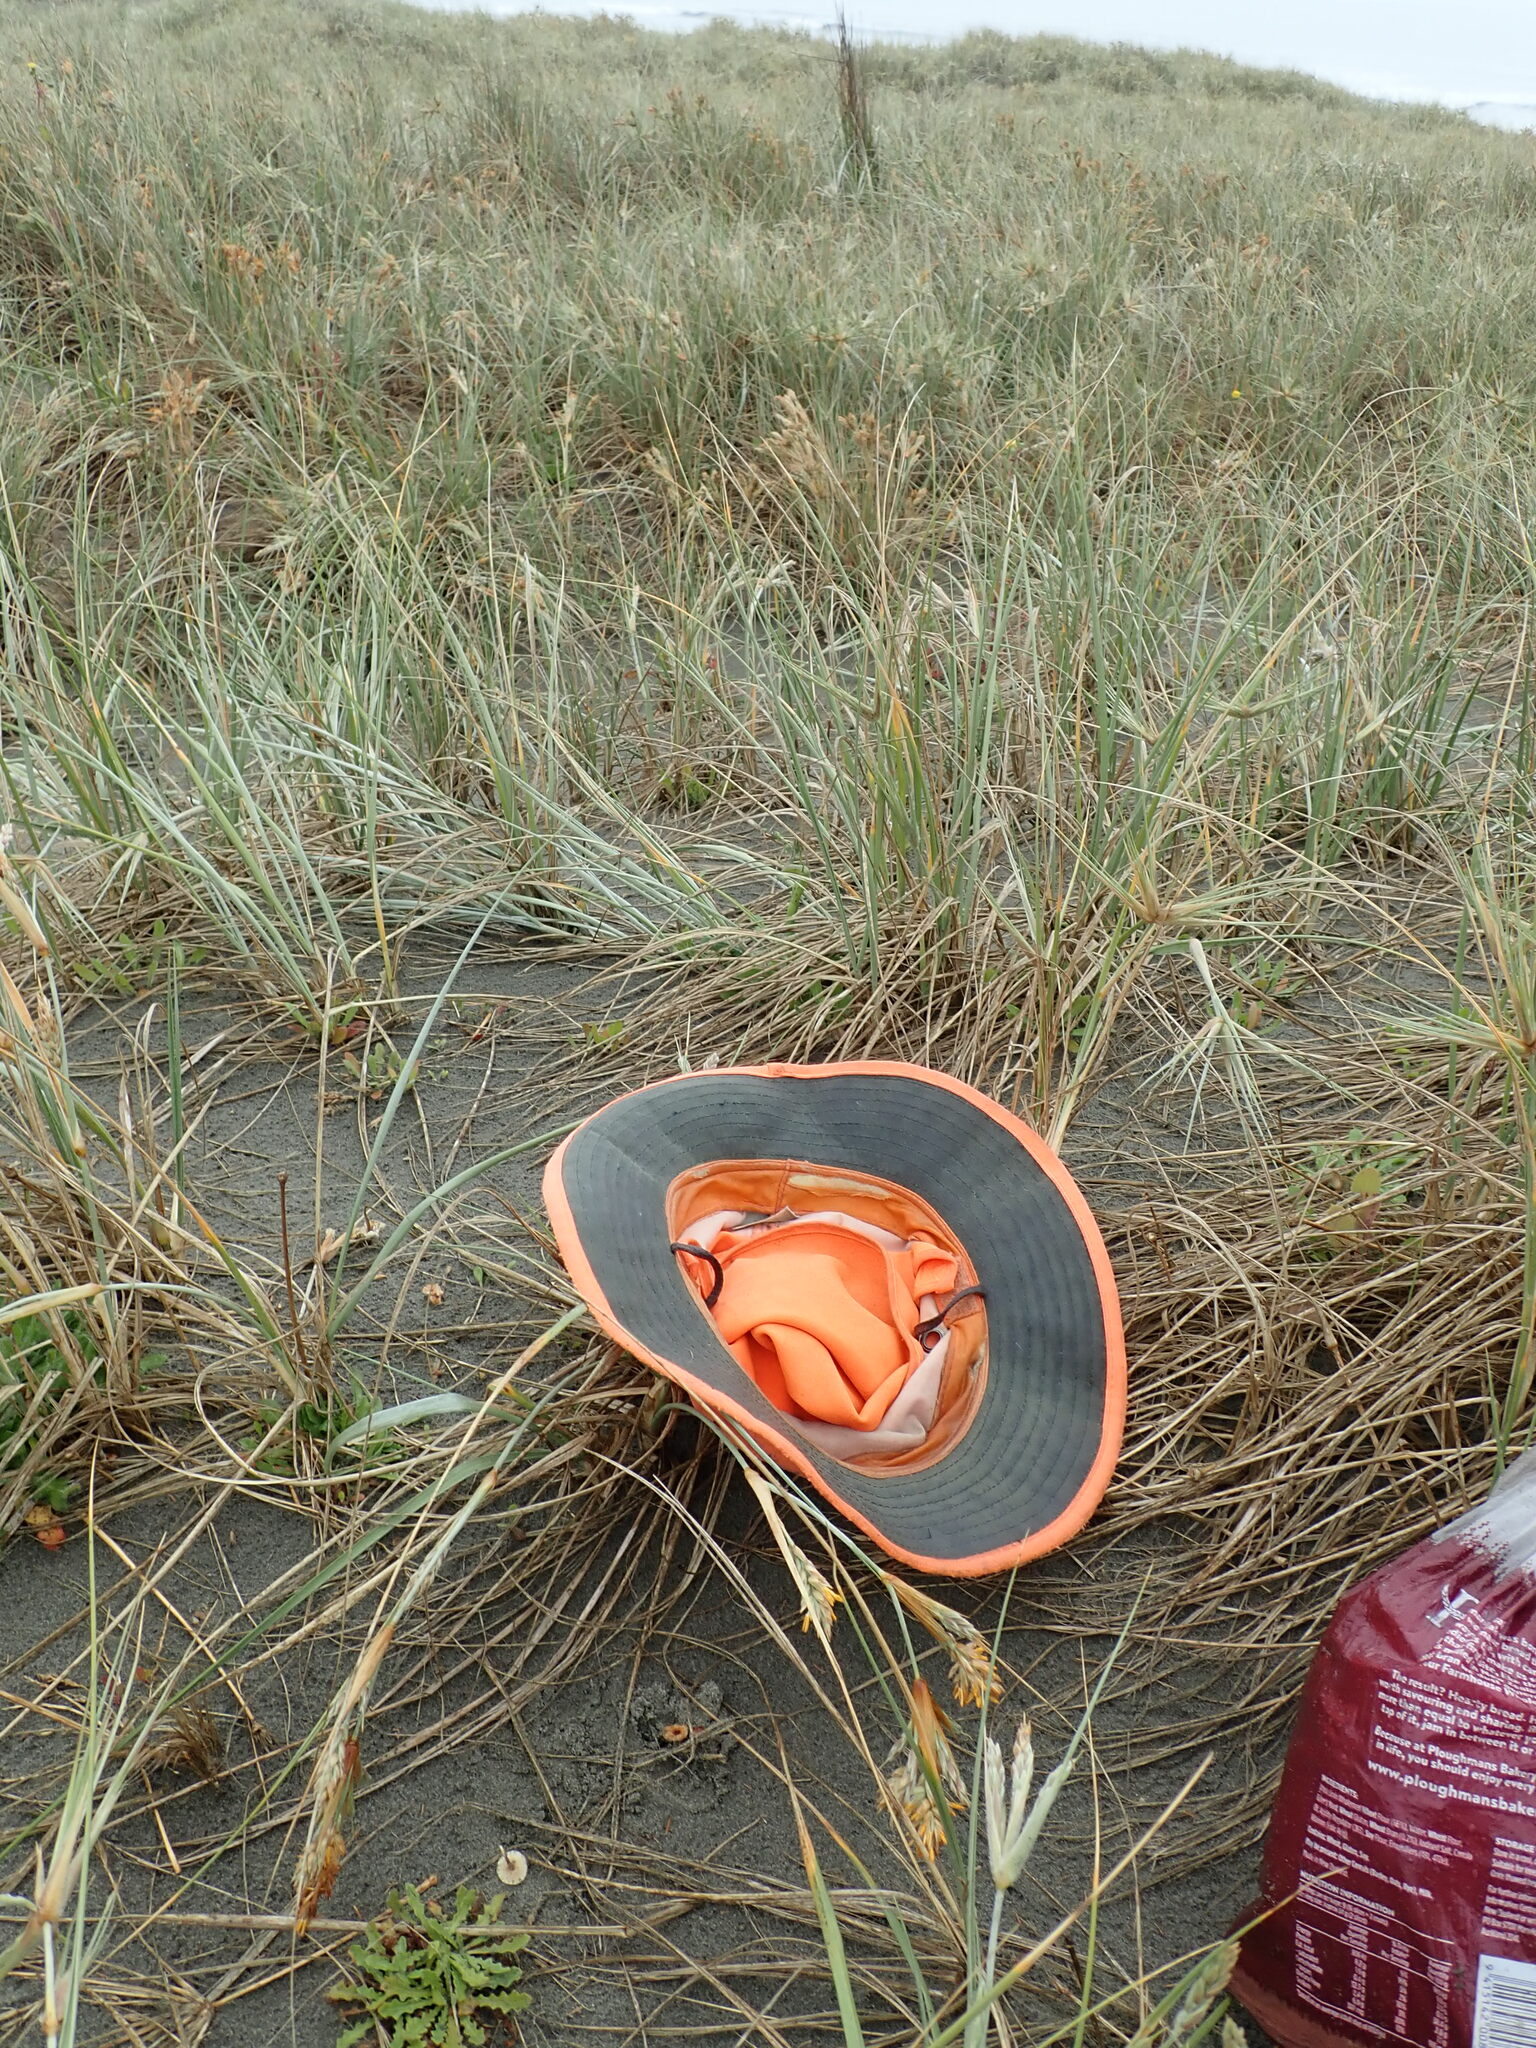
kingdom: Fungi
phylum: Basidiomycota
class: Agaricomycetes
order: Agaricales
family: Marasmiaceae
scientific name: Marasmiaceae
